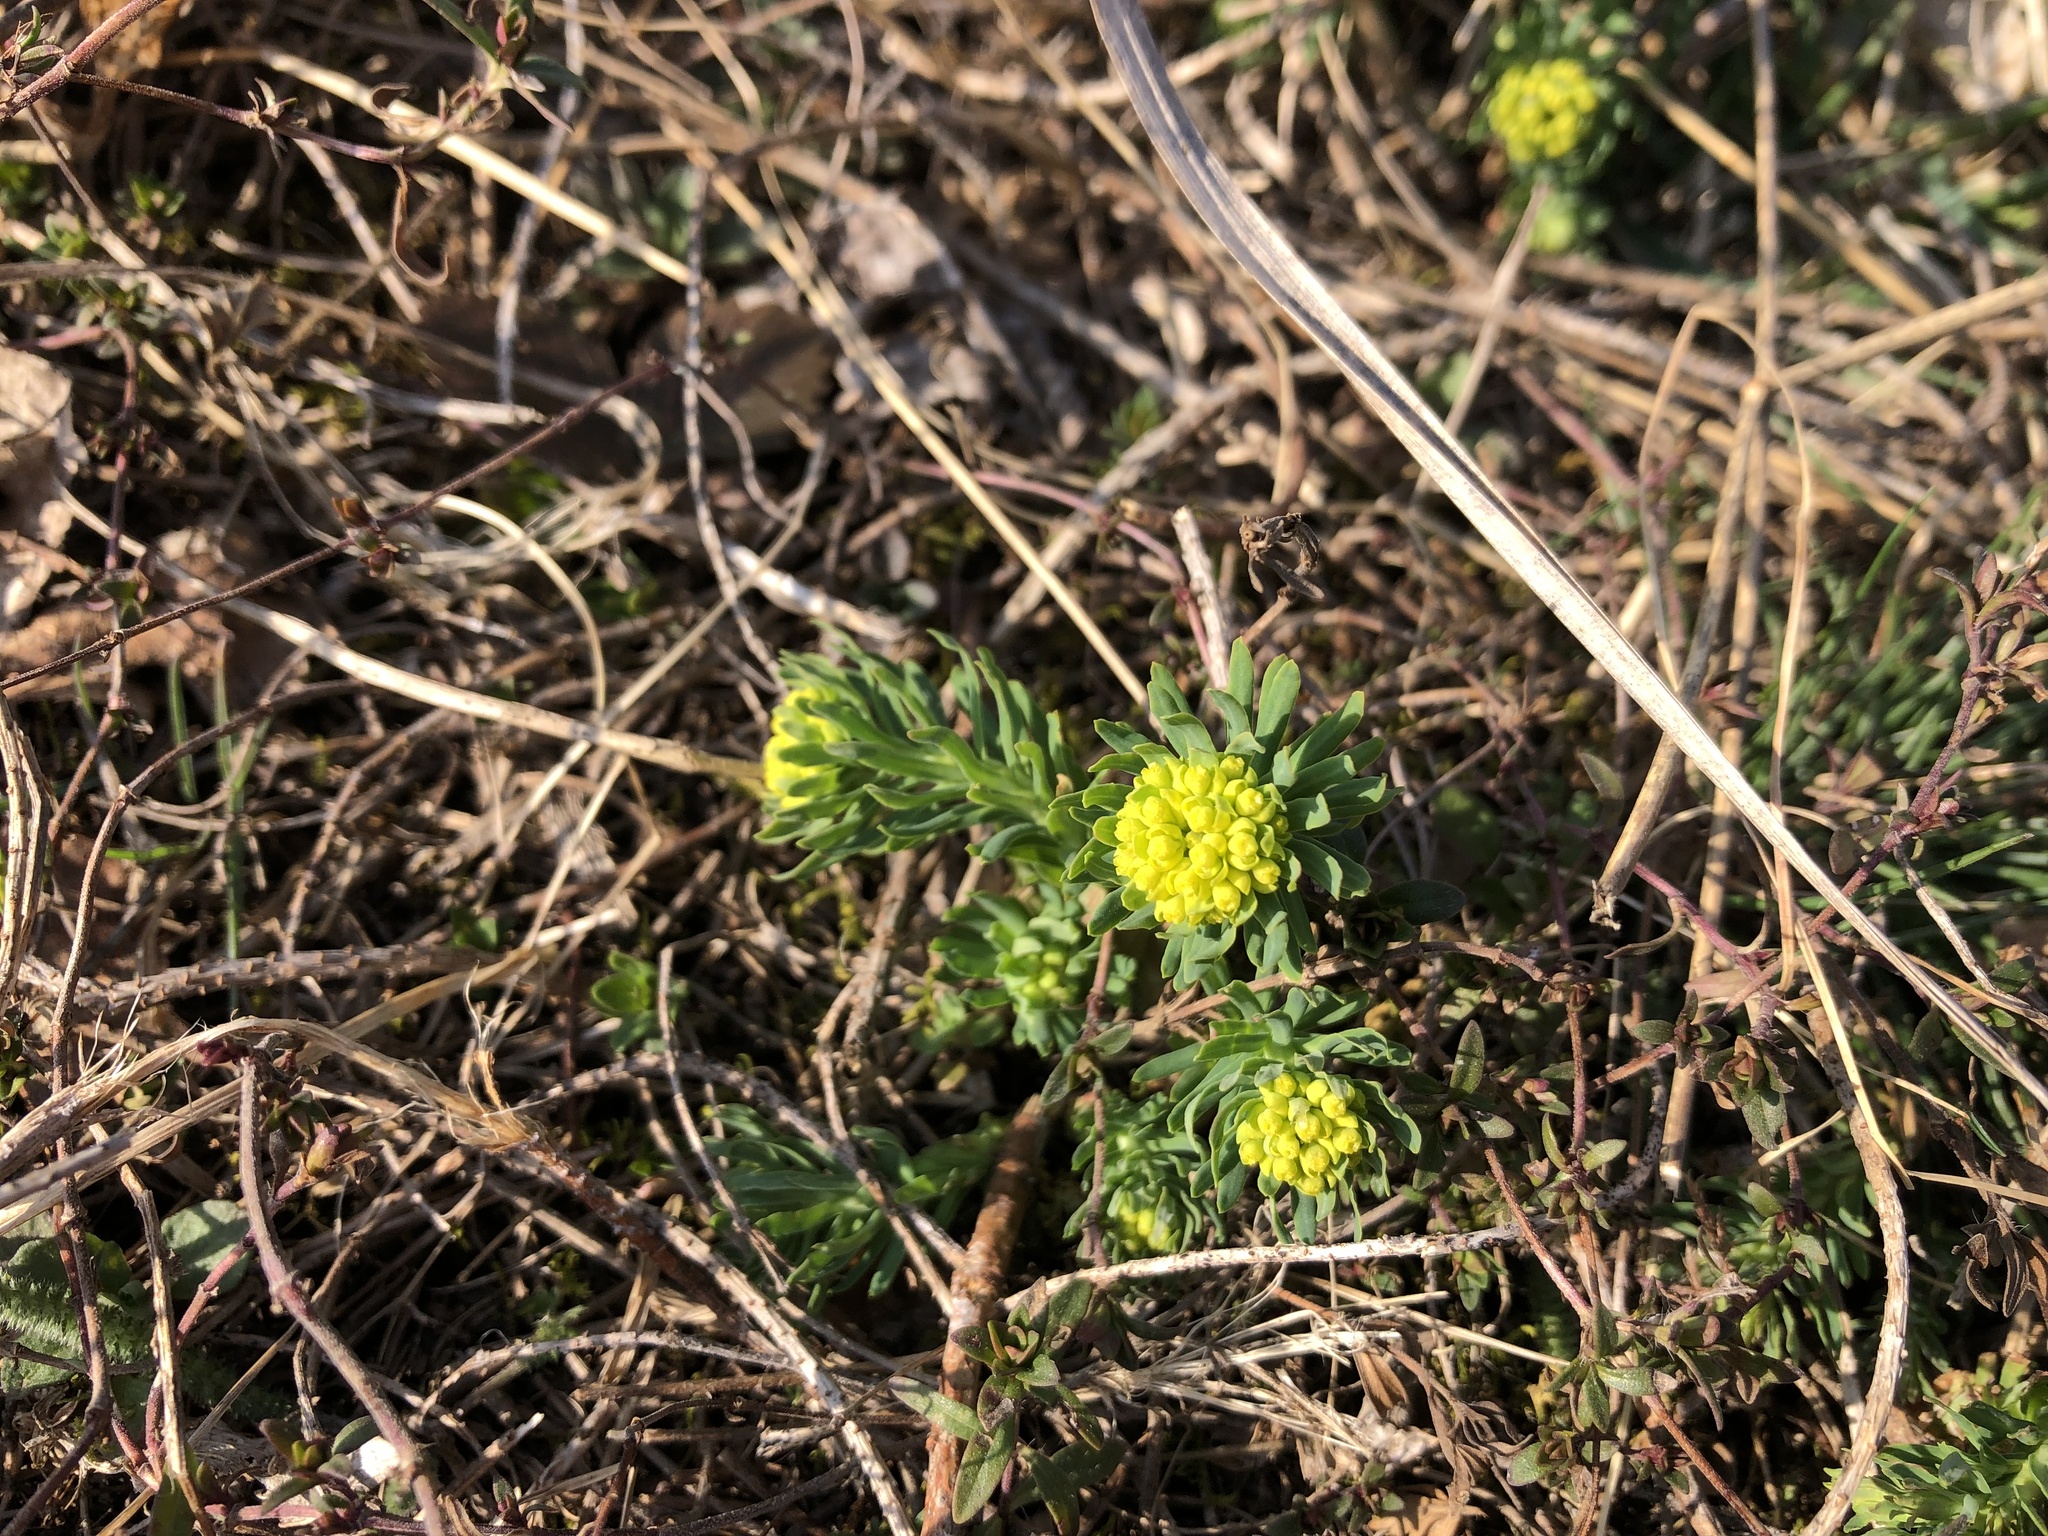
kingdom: Plantae
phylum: Tracheophyta
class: Magnoliopsida
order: Malpighiales
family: Euphorbiaceae
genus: Euphorbia
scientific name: Euphorbia cyparissias
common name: Cypress spurge
